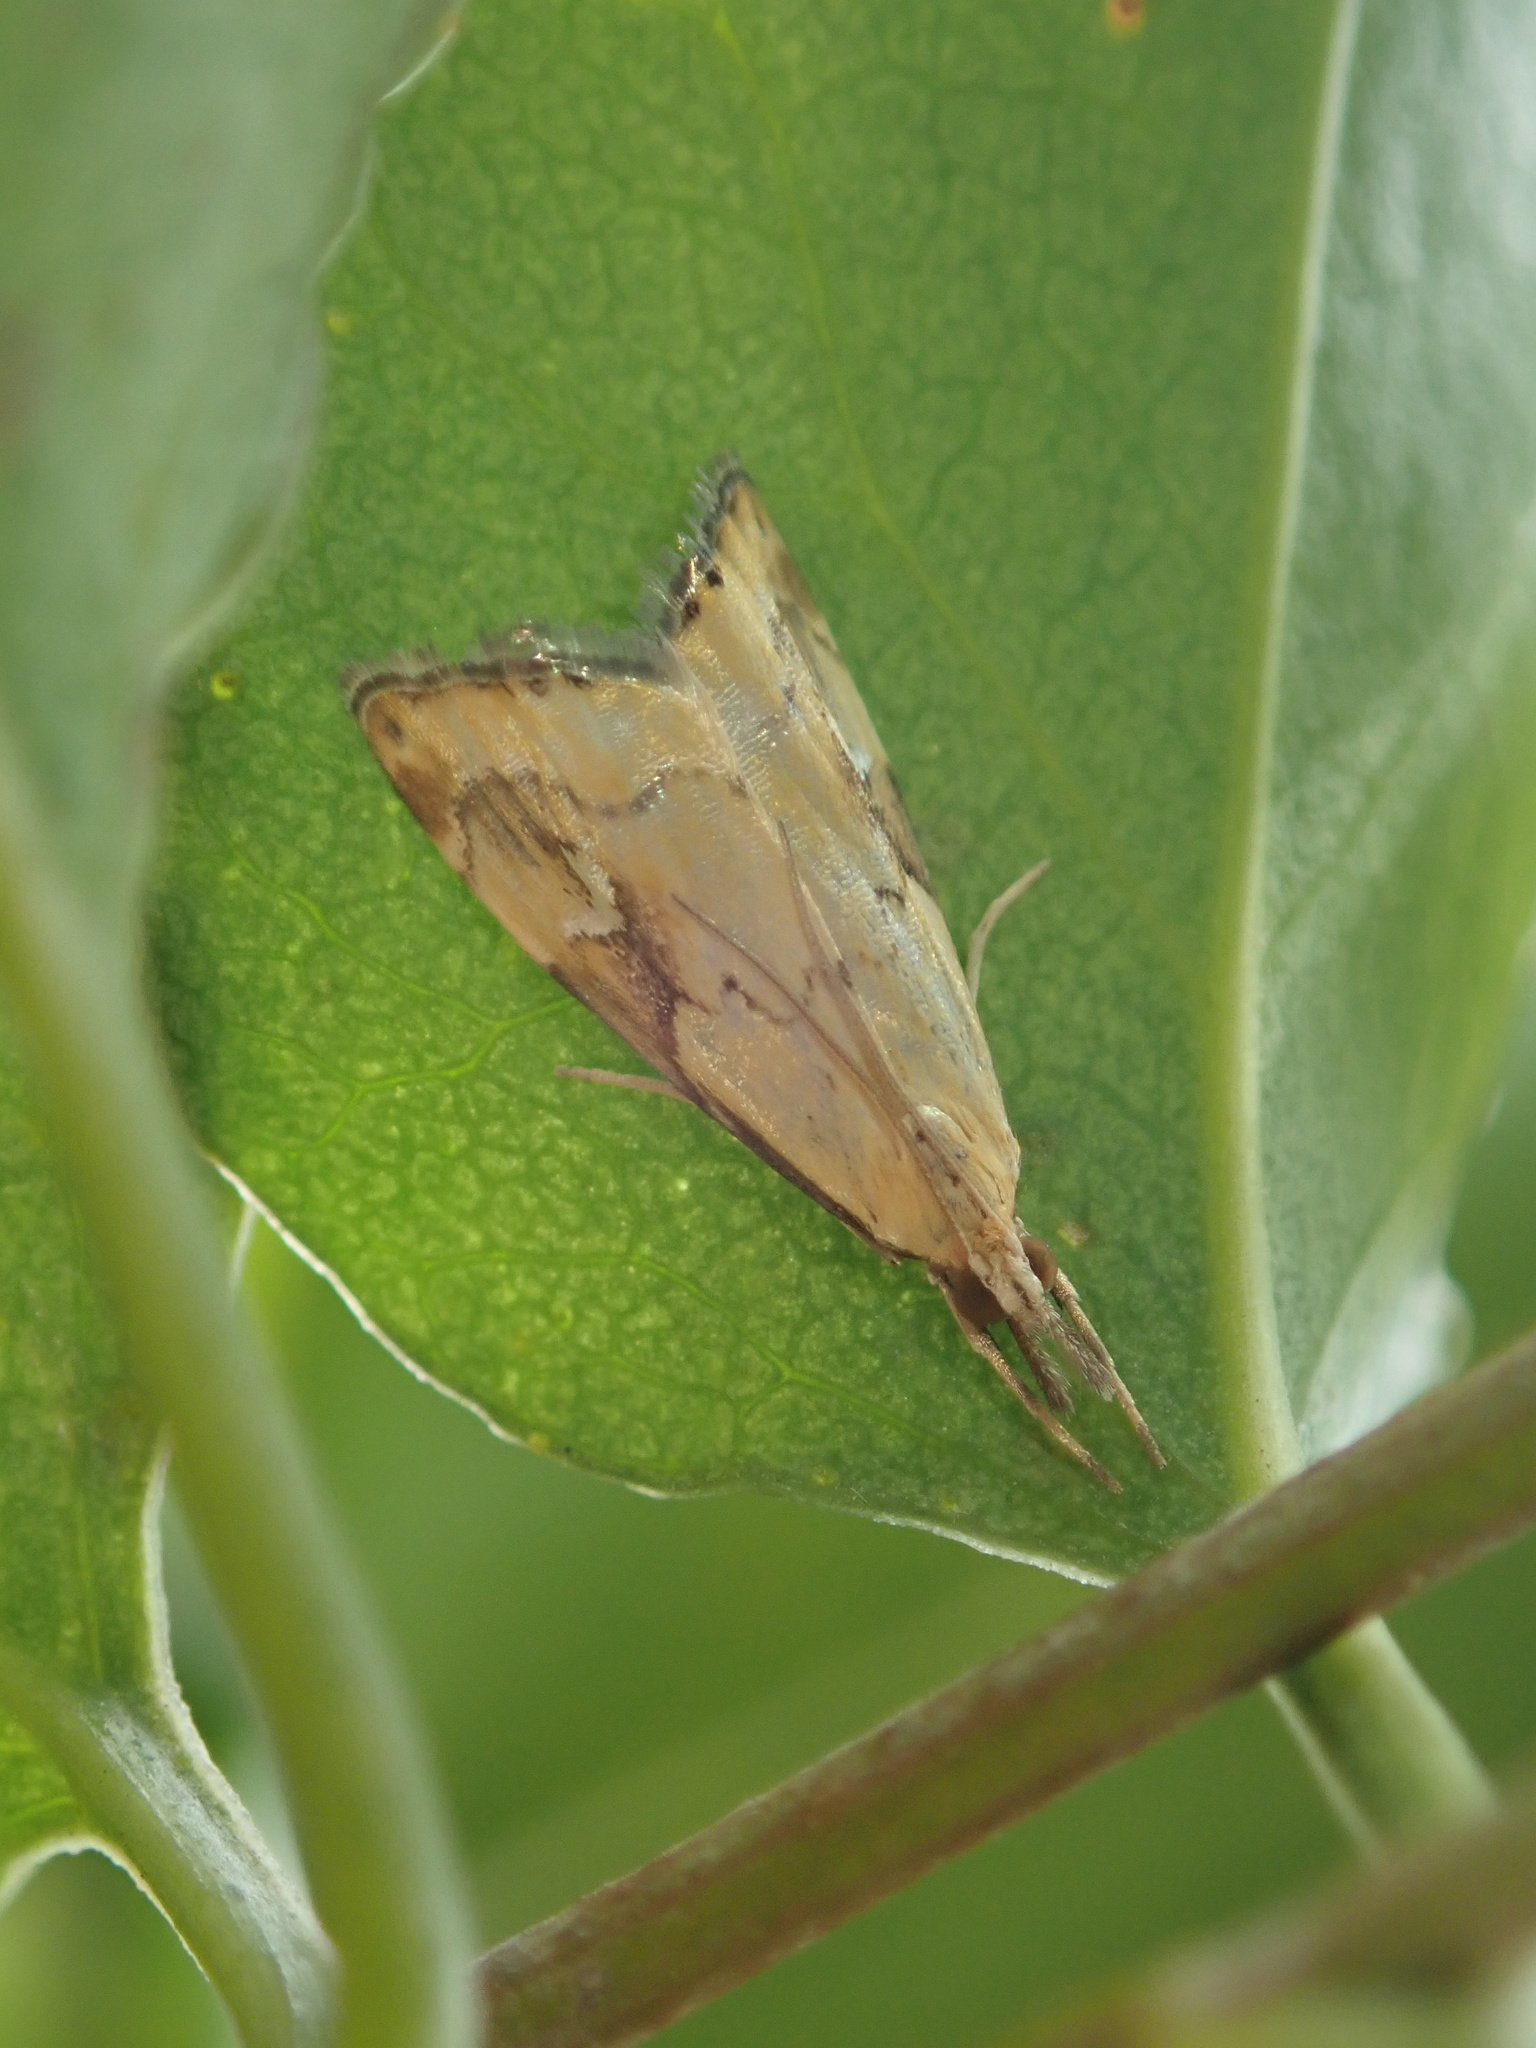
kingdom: Animalia
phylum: Arthropoda
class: Insecta
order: Lepidoptera
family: Crambidae
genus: Glaucocharis
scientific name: Glaucocharis lepidella
